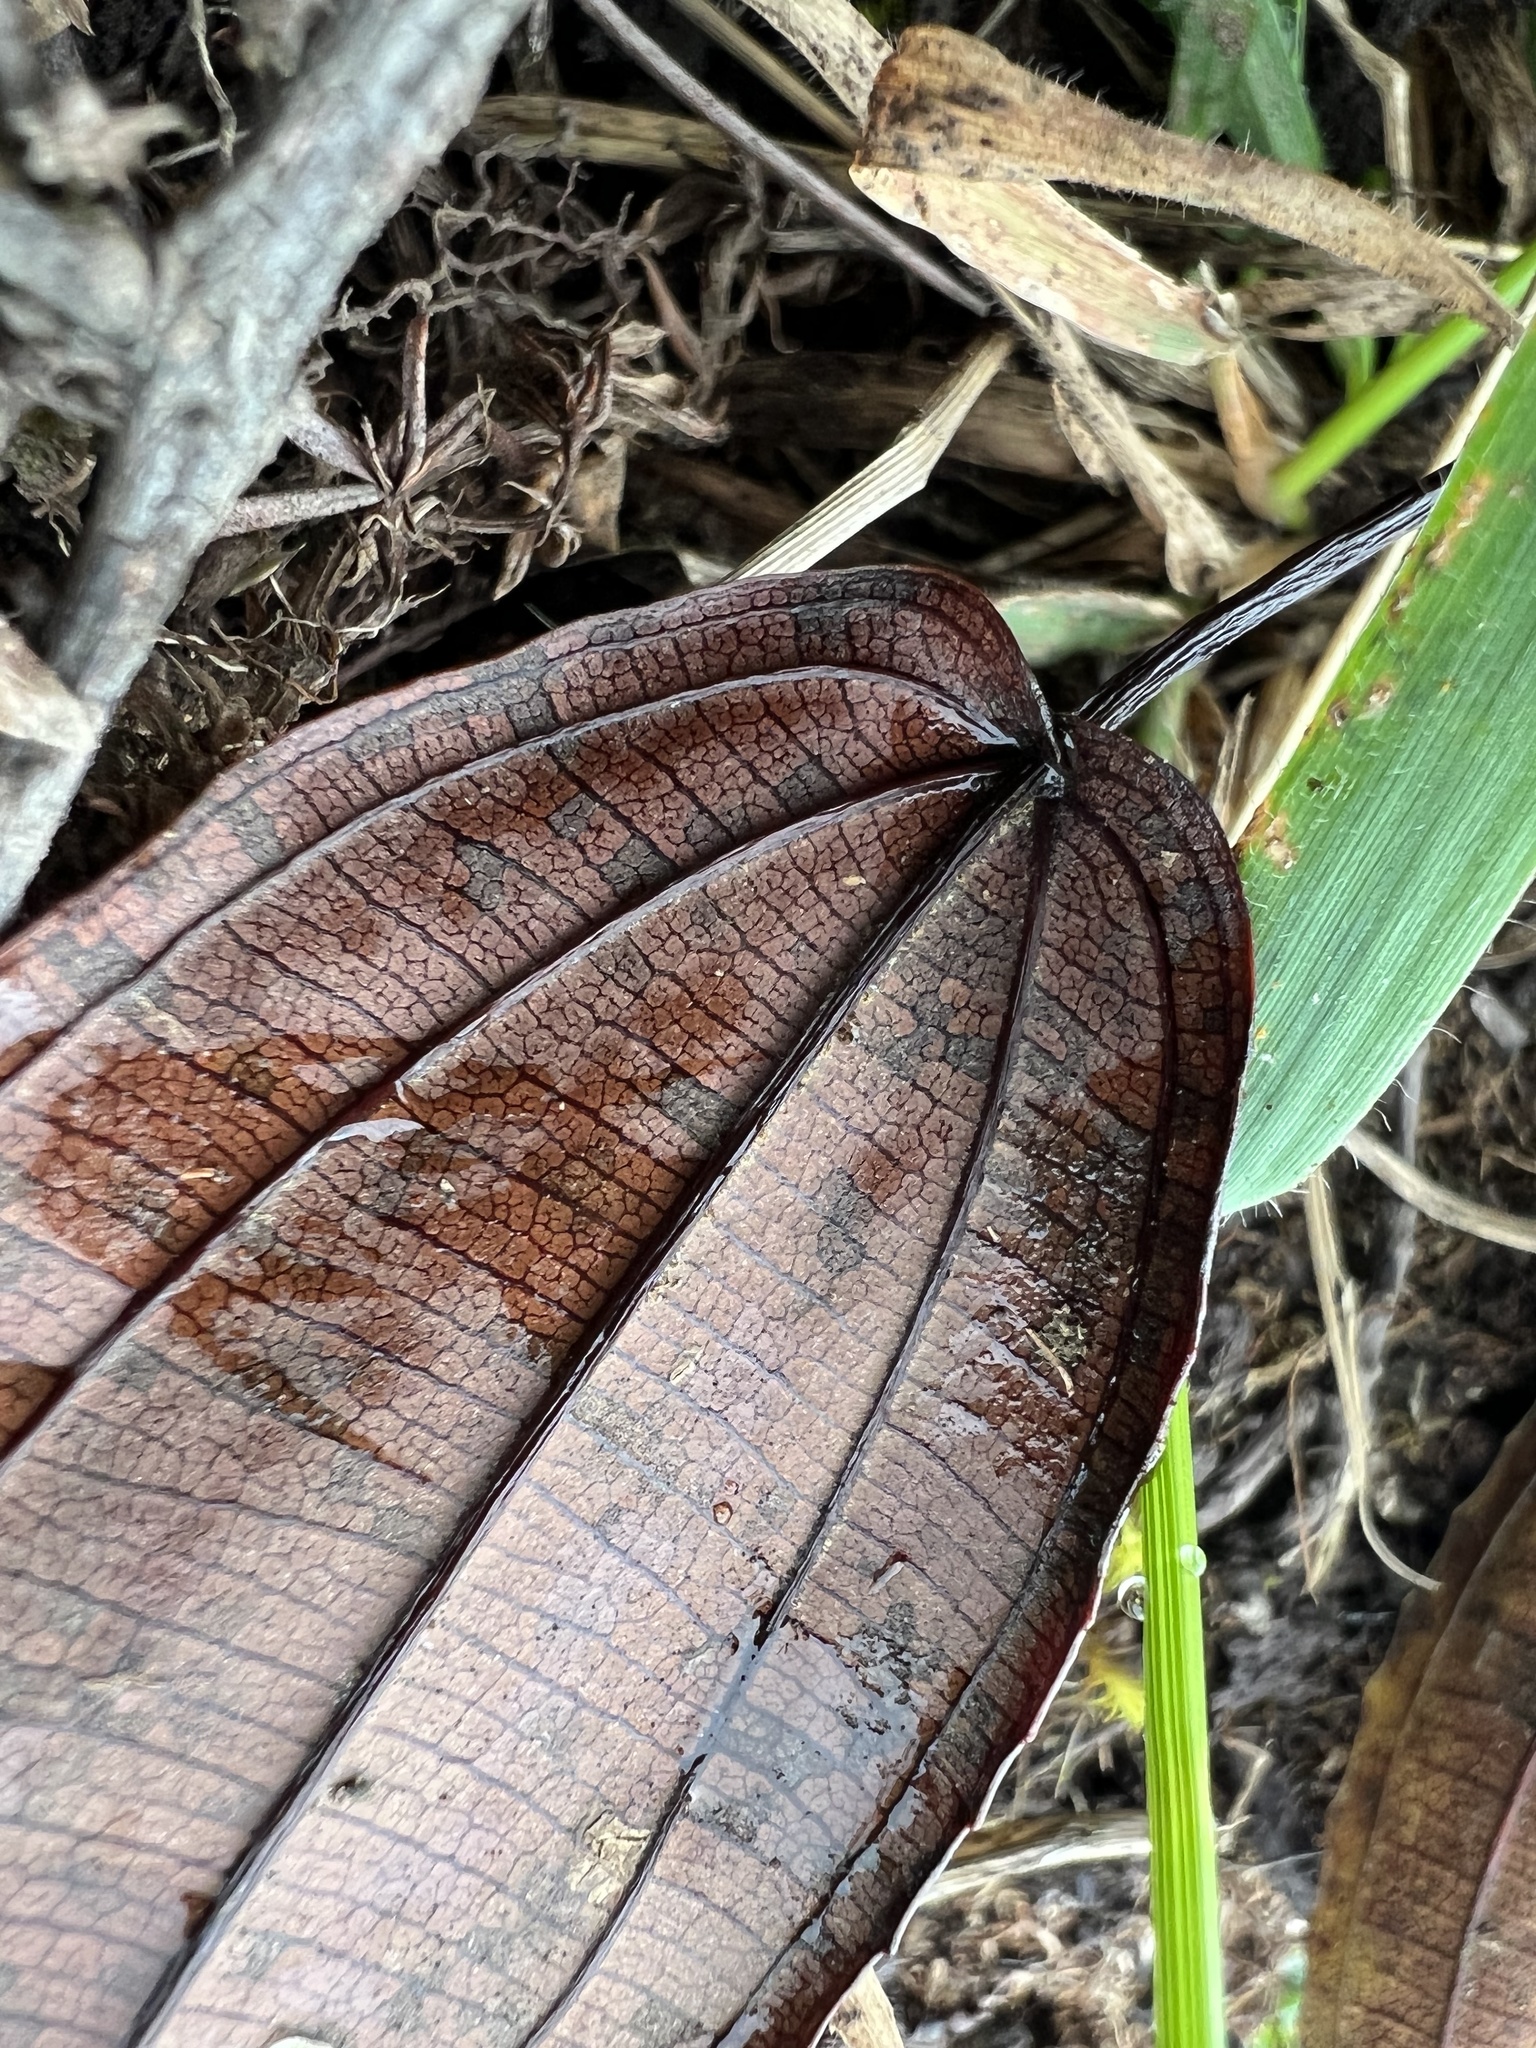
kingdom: Plantae
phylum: Tracheophyta
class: Magnoliopsida
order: Myrtales
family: Melastomataceae
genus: Axinaea
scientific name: Axinaea scutigera
